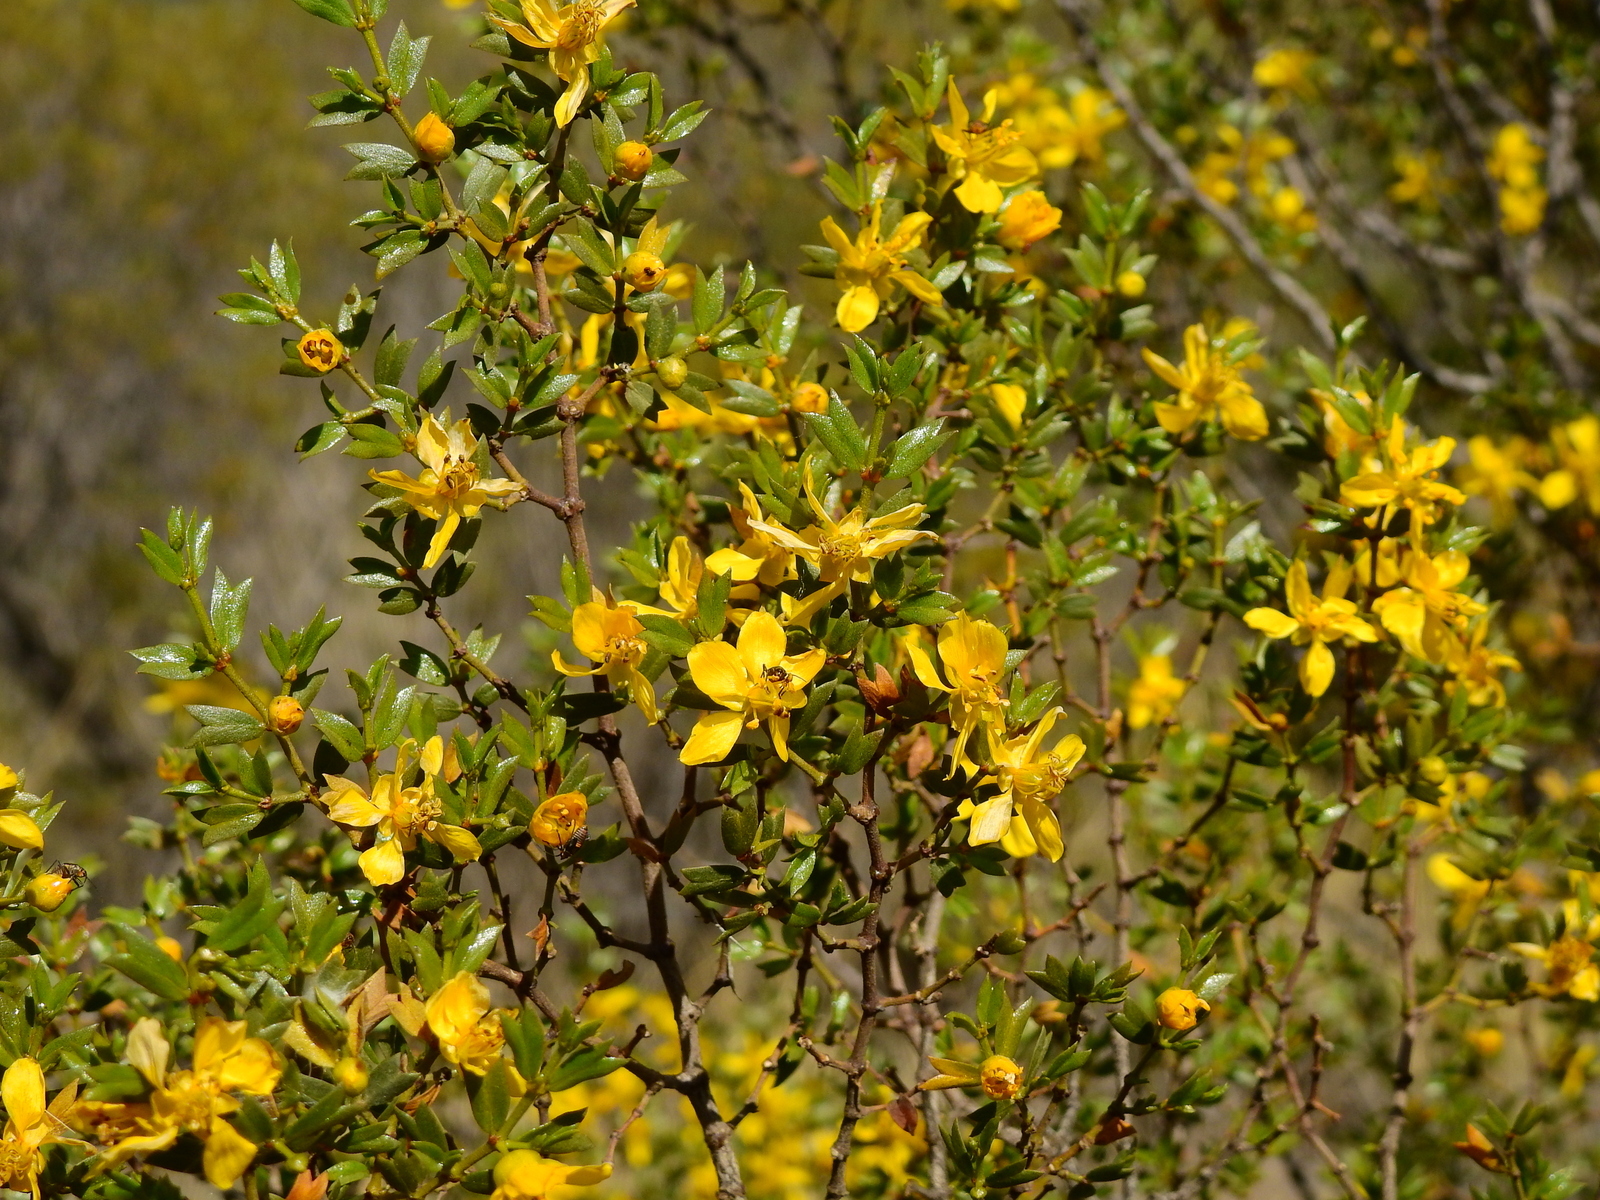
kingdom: Plantae
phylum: Tracheophyta
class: Magnoliopsida
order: Zygophyllales
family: Zygophyllaceae
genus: Larrea
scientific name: Larrea cuneifolia
